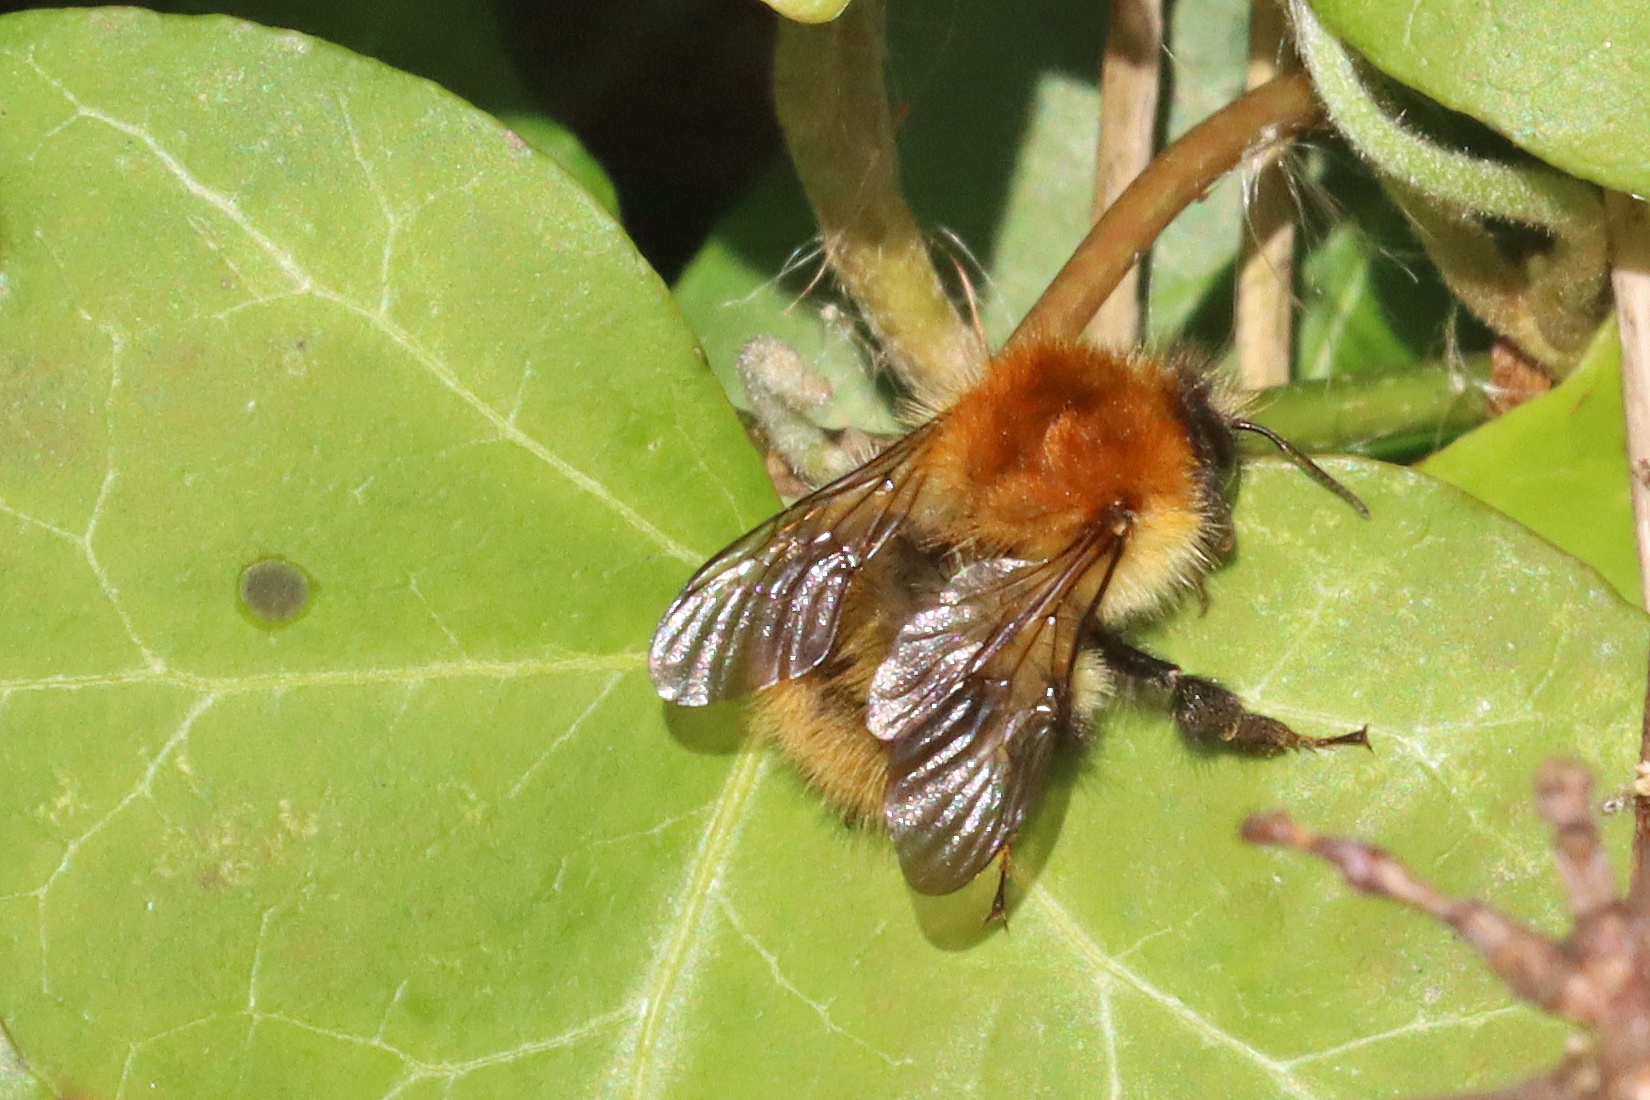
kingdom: Animalia
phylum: Arthropoda
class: Insecta
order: Hymenoptera
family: Apidae
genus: Bombus
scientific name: Bombus pascuorum
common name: Common carder bee
